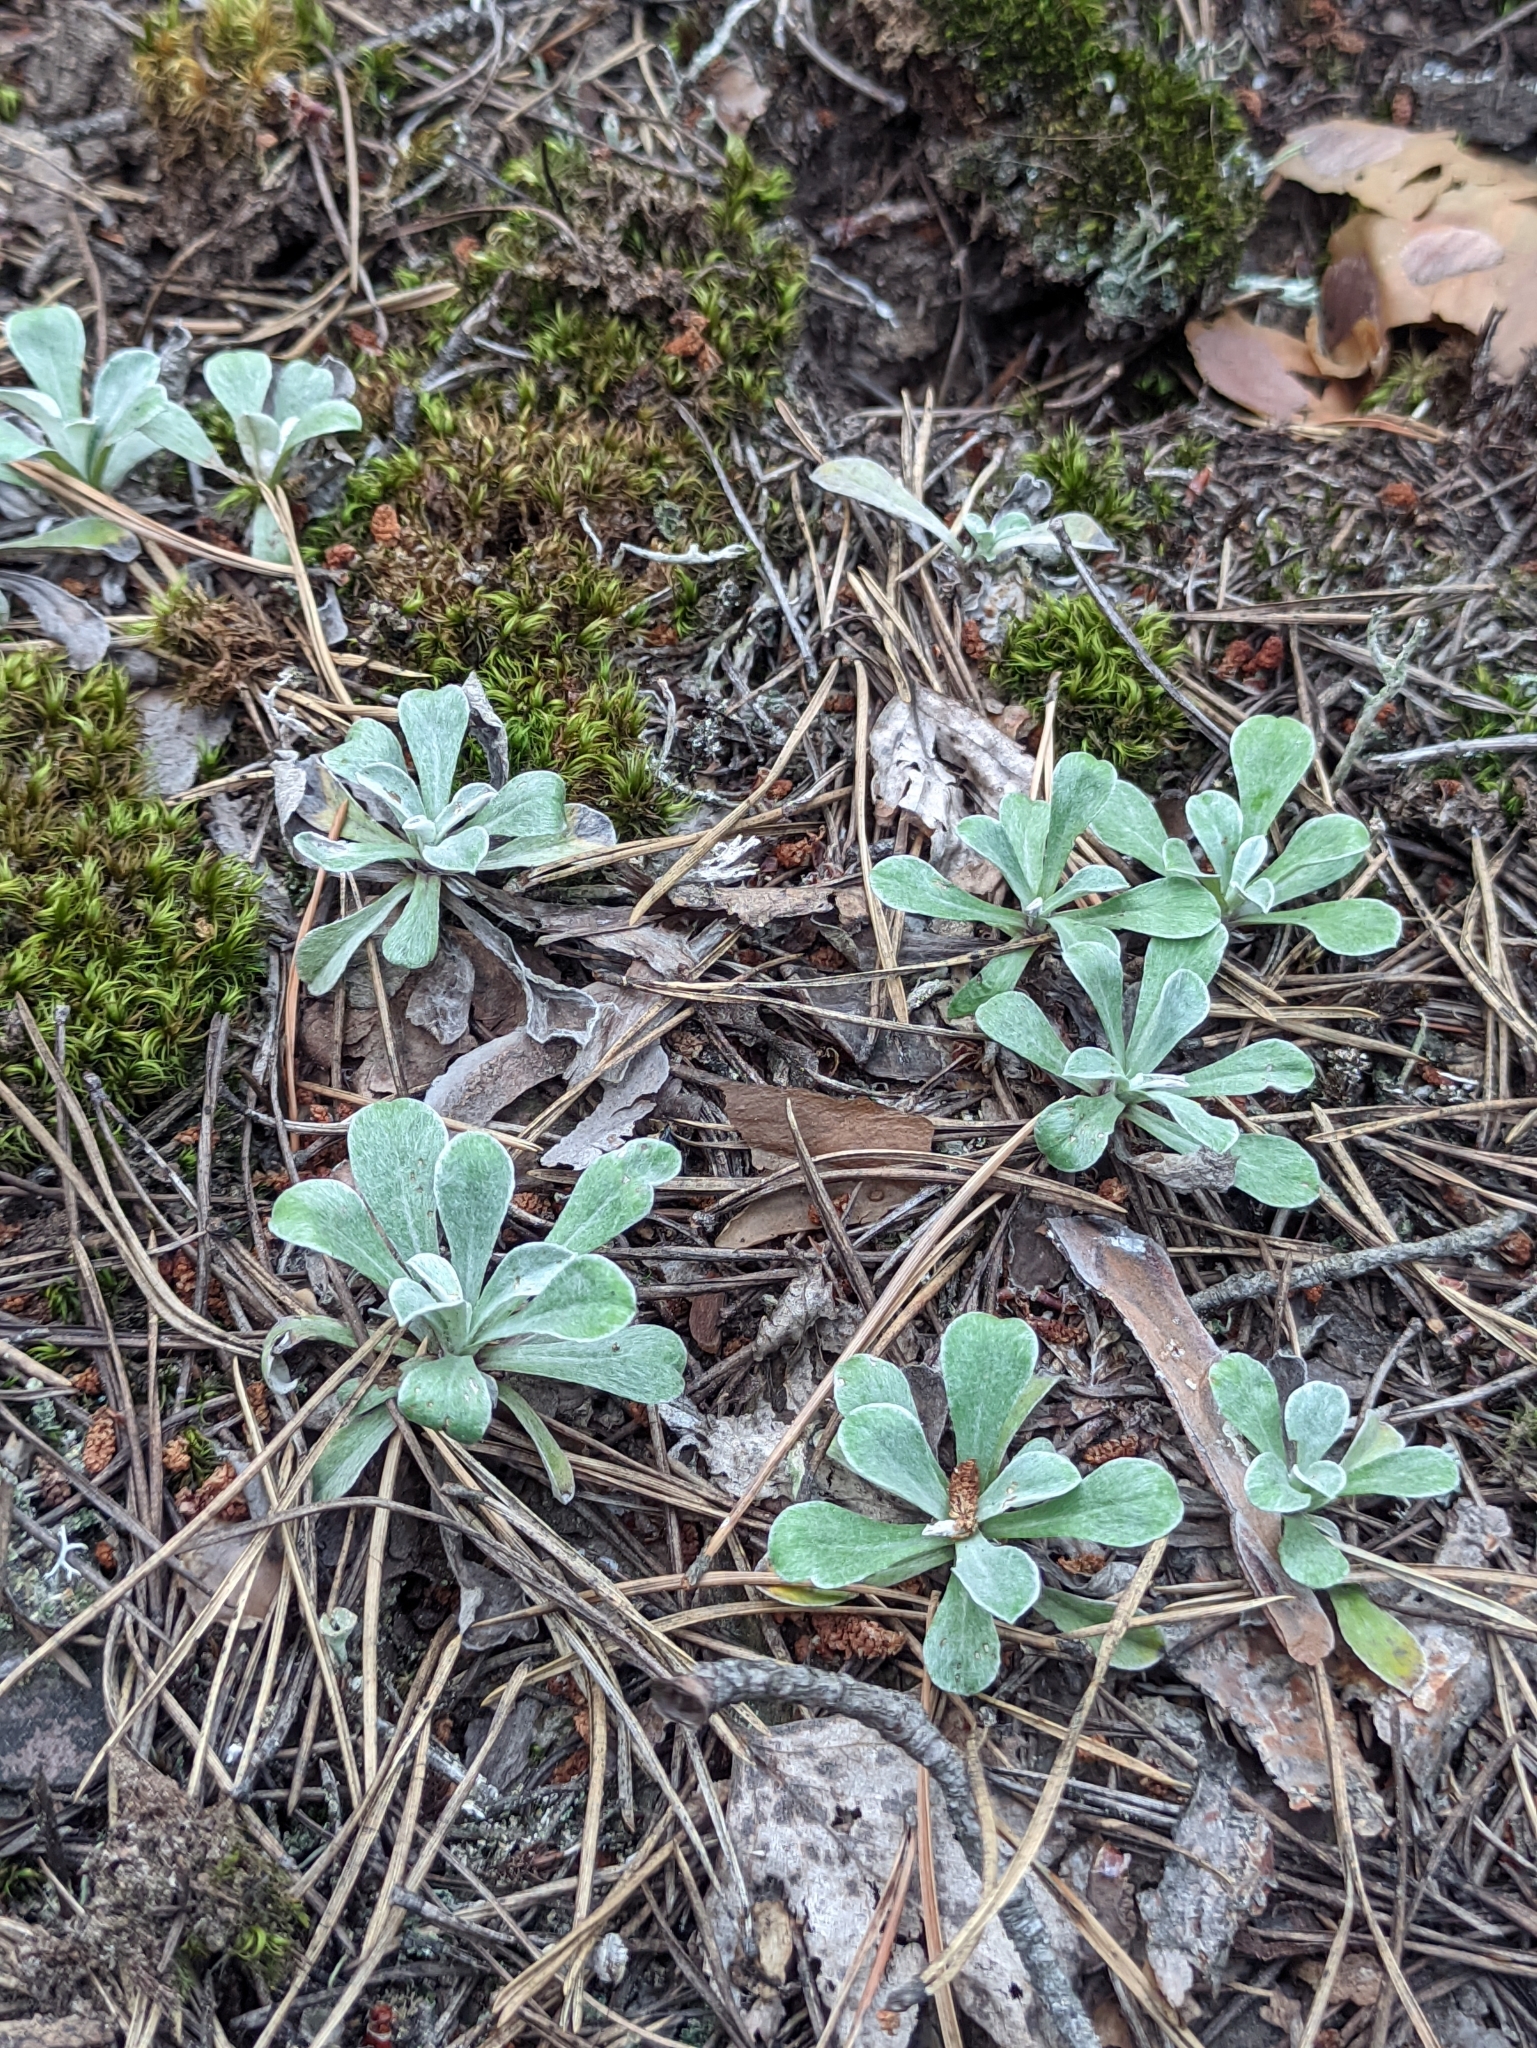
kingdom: Plantae
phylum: Tracheophyta
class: Magnoliopsida
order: Asterales
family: Asteraceae
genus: Antennaria
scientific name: Antennaria dioica
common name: Mountain everlasting
